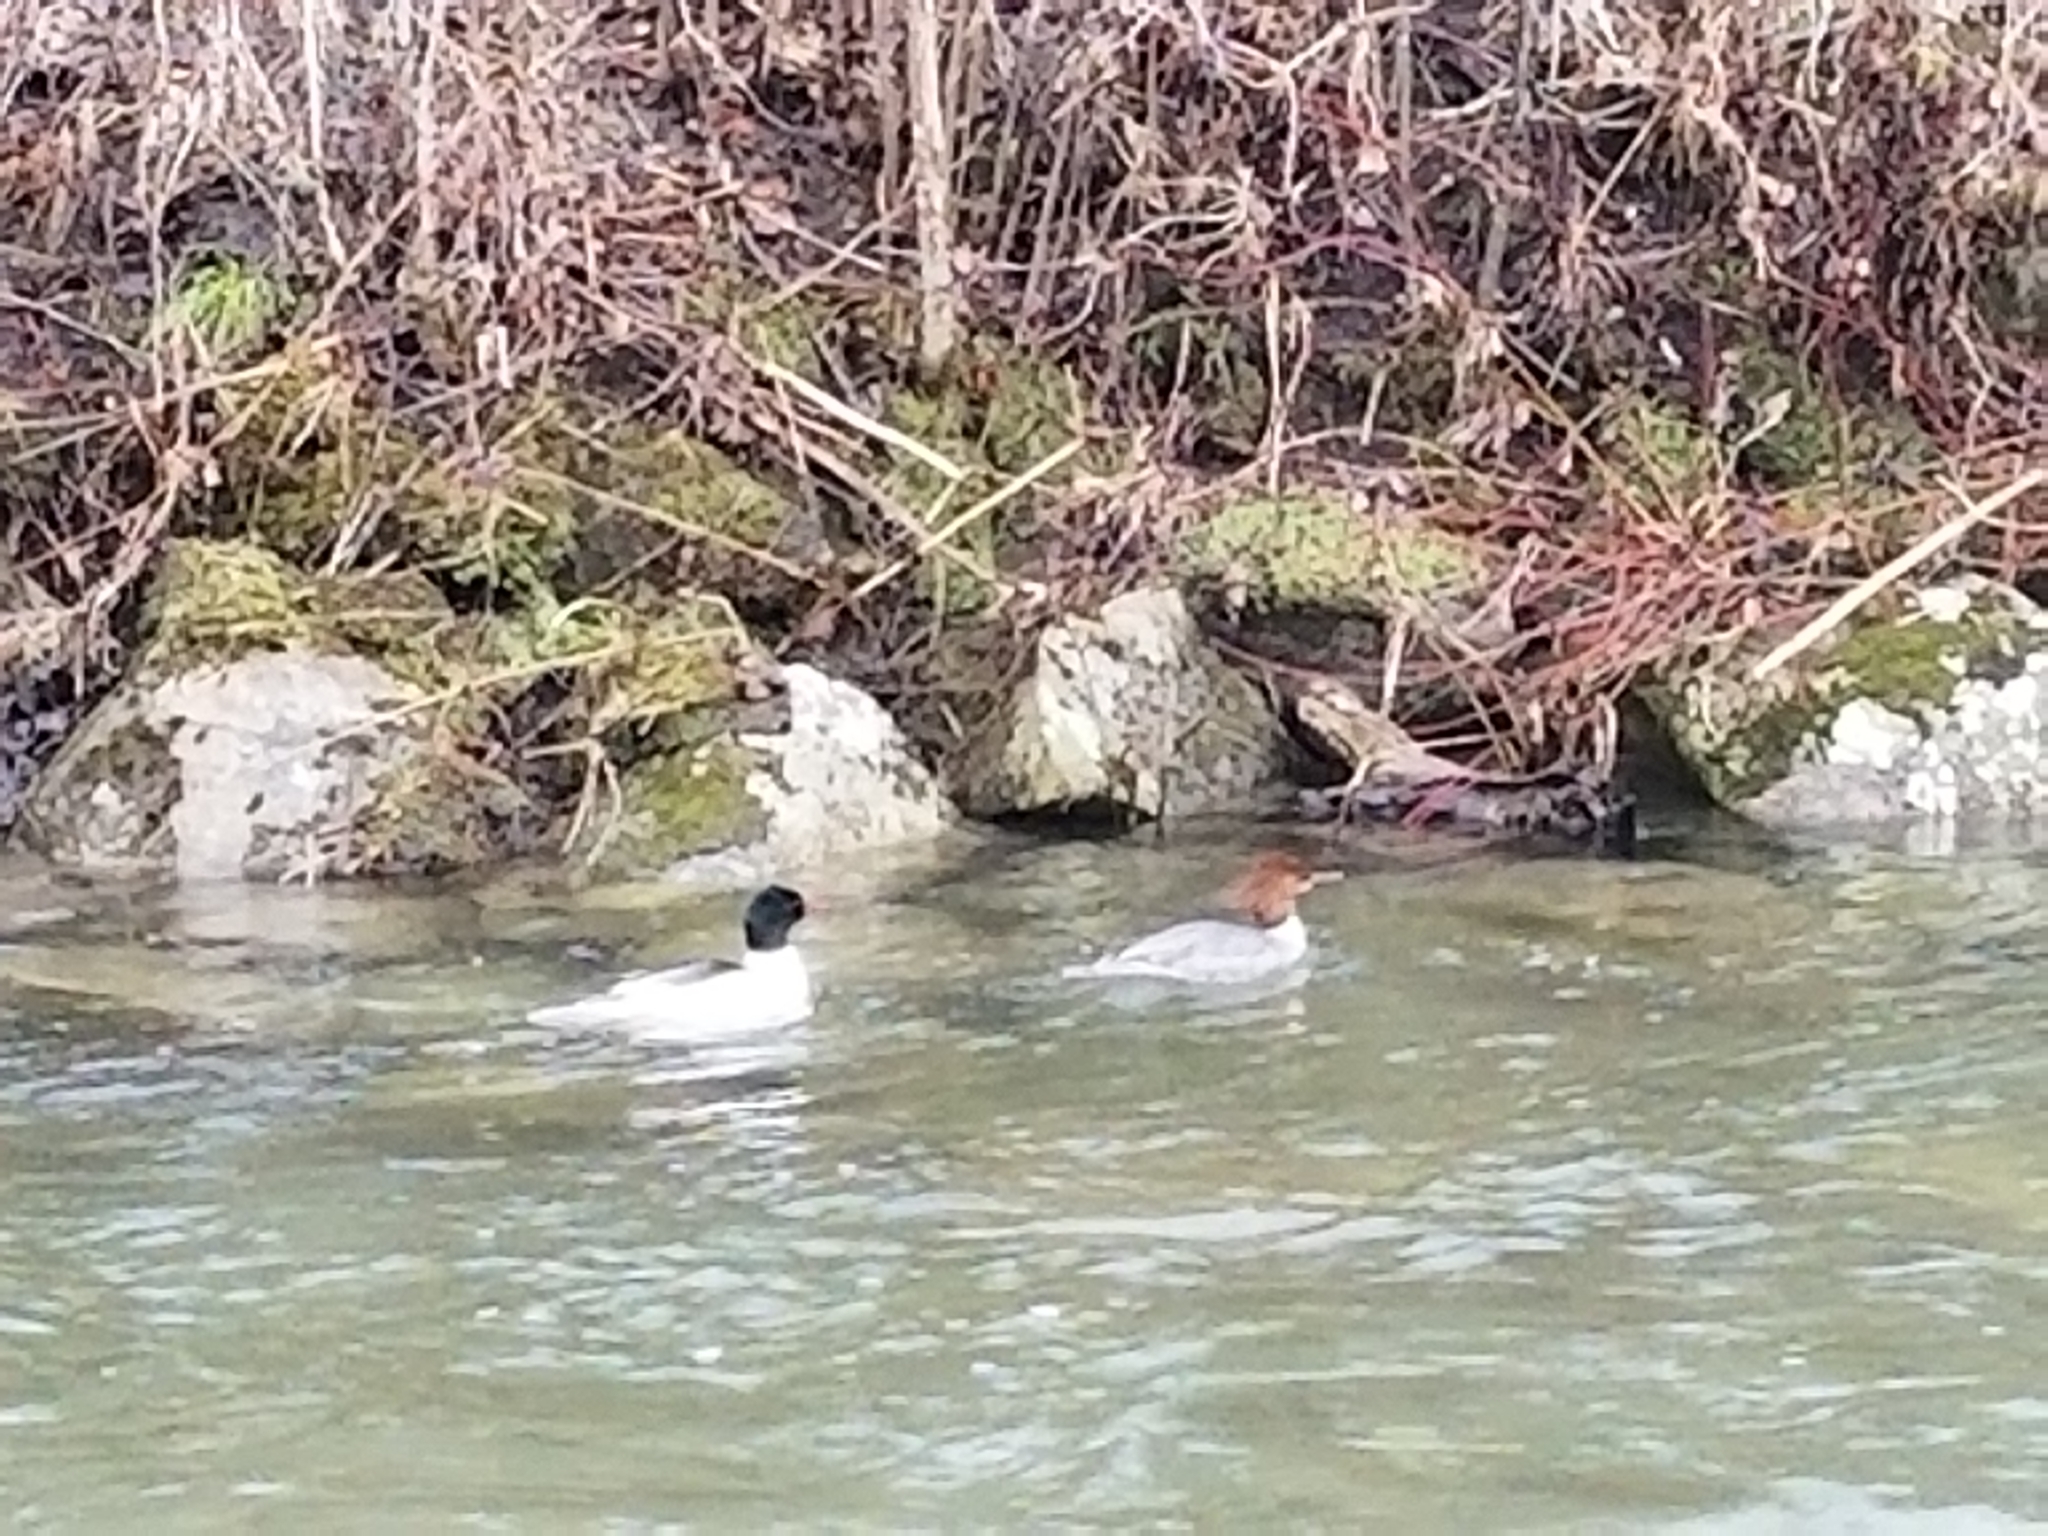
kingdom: Animalia
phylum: Chordata
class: Aves
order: Anseriformes
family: Anatidae
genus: Mergus
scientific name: Mergus merganser
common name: Common merganser
